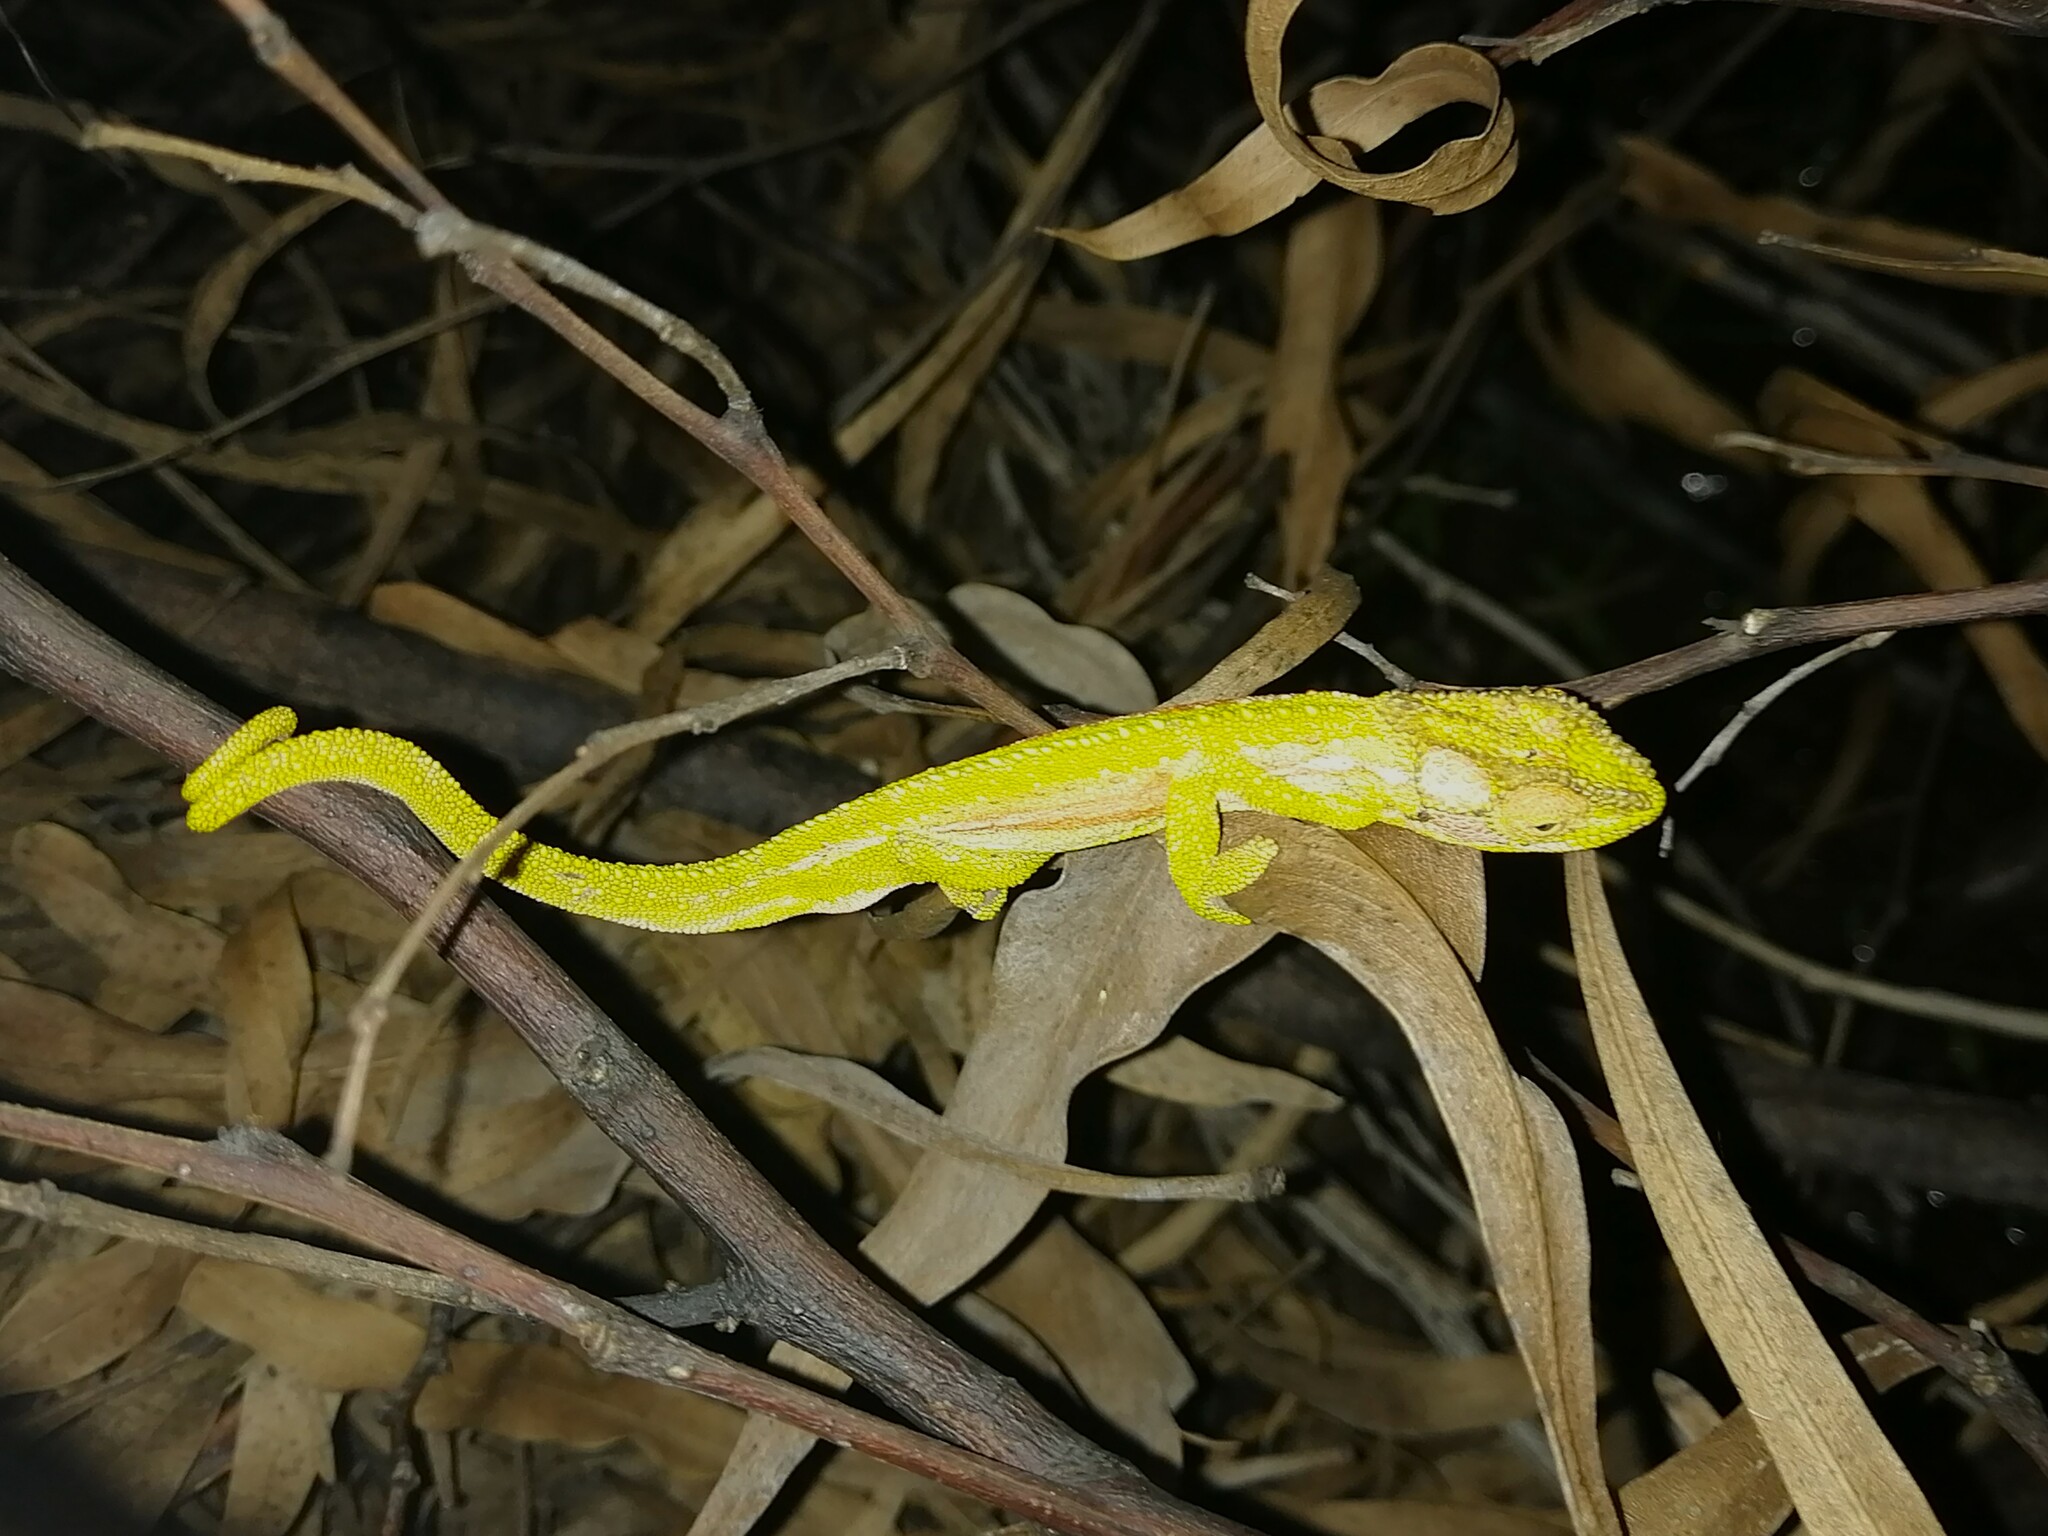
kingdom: Animalia
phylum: Chordata
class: Squamata
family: Chamaeleonidae
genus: Bradypodion
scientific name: Bradypodion pumilum
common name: Cape dwarf chameleon
